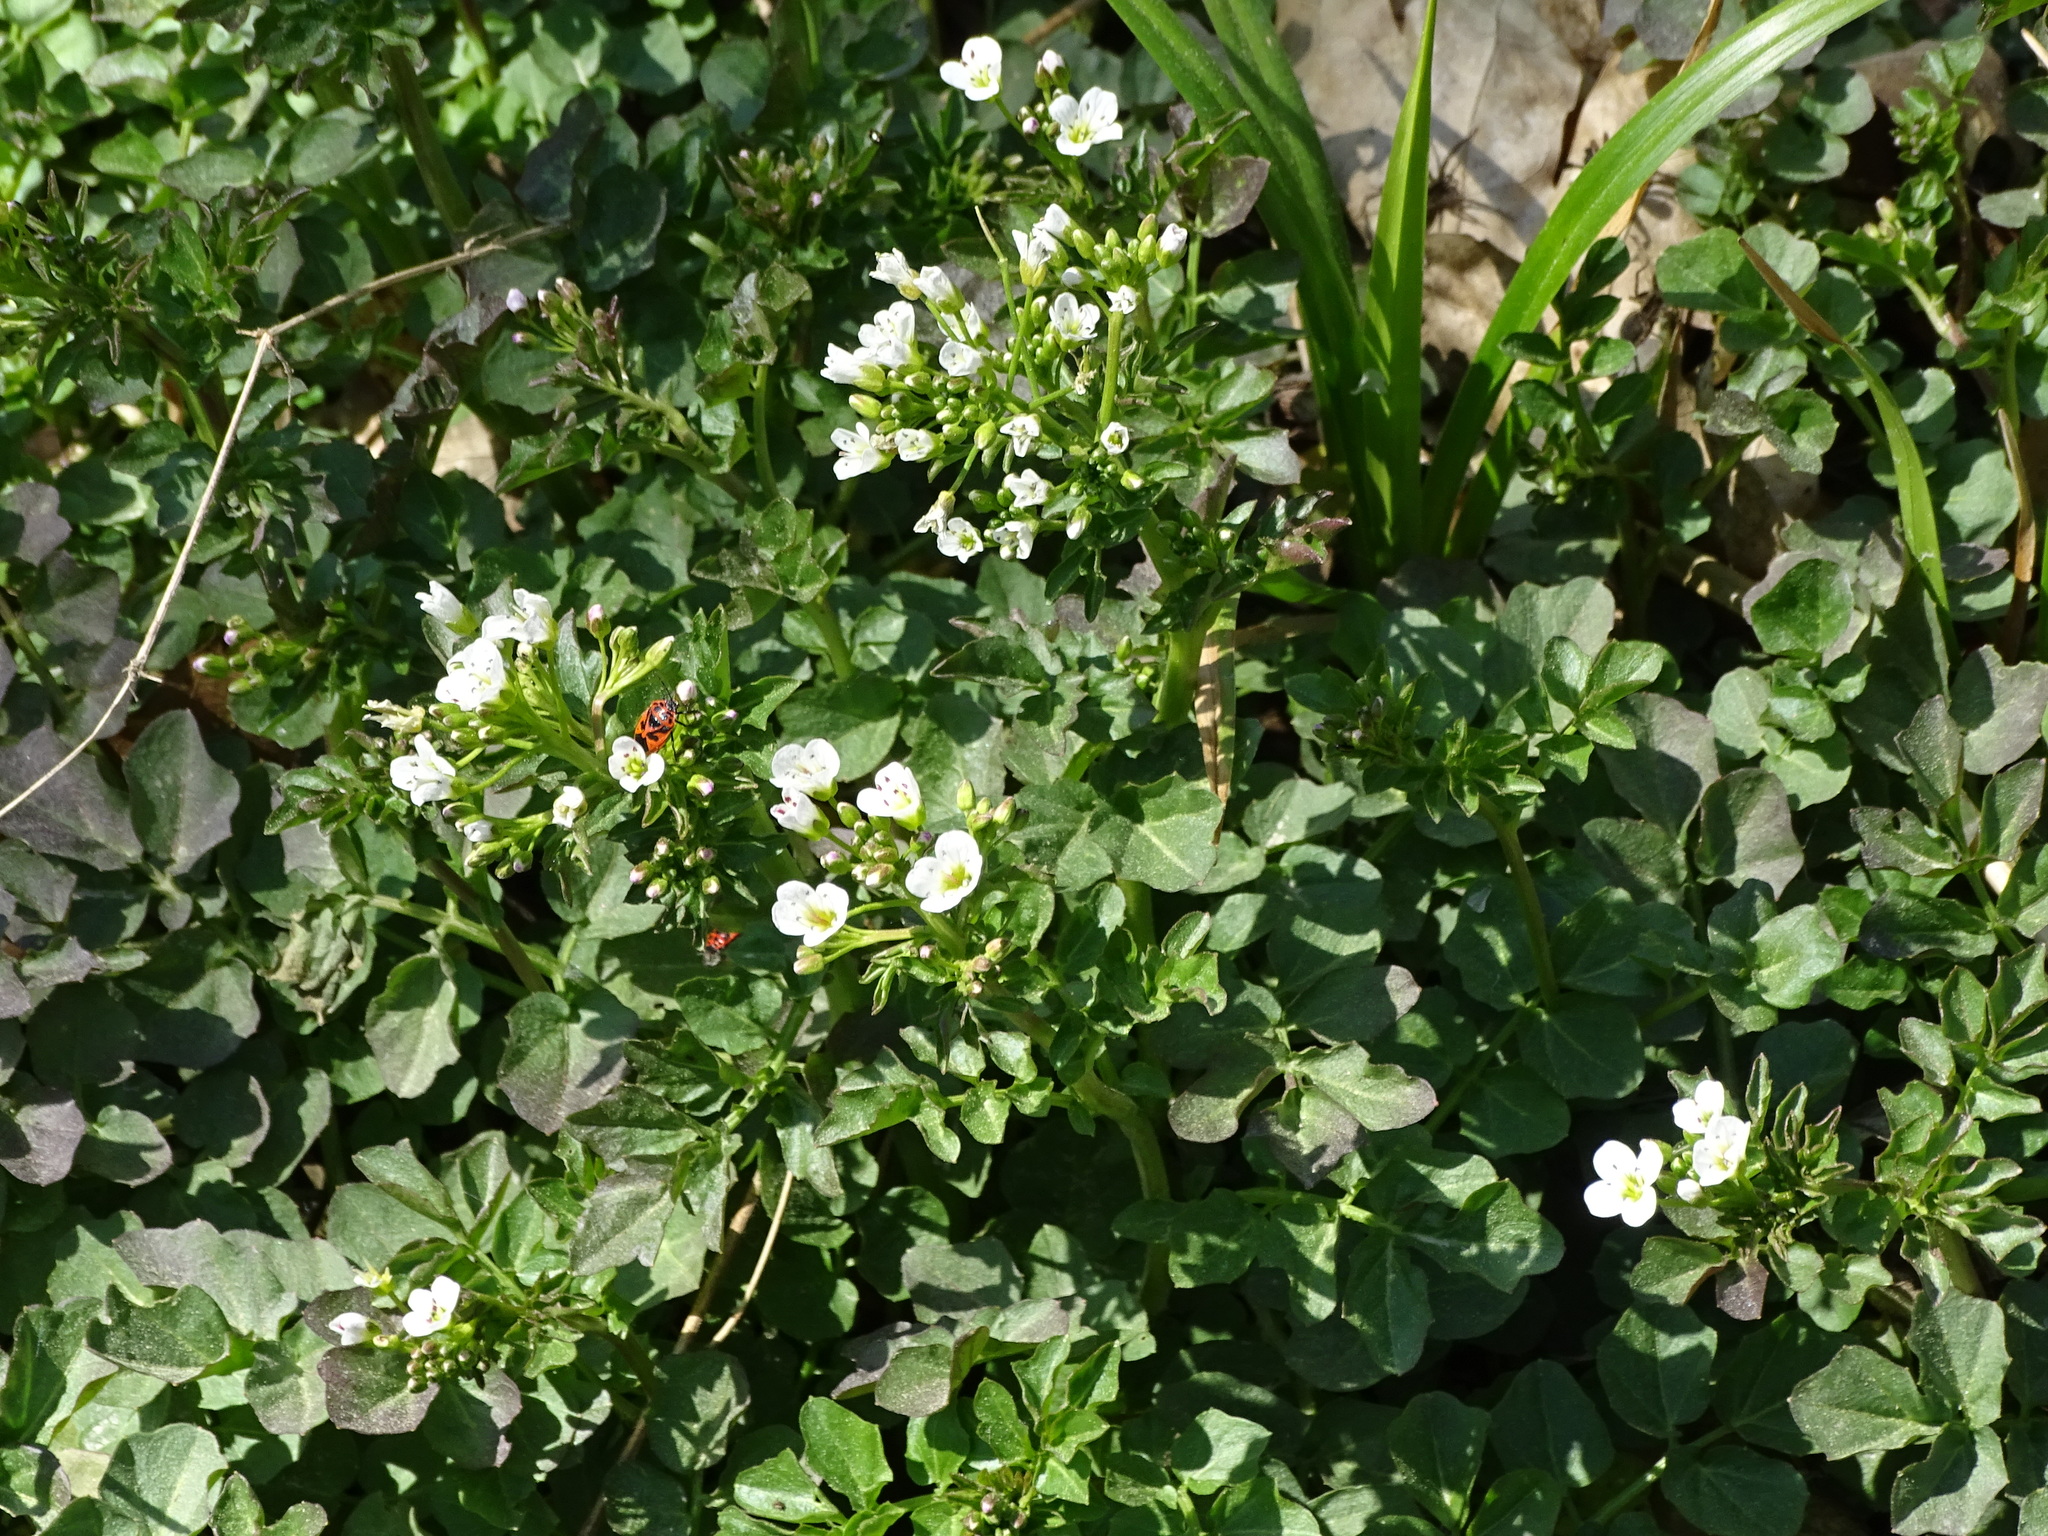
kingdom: Plantae
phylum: Tracheophyta
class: Magnoliopsida
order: Brassicales
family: Brassicaceae
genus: Cardamine
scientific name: Cardamine amara
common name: Large bitter-cress
